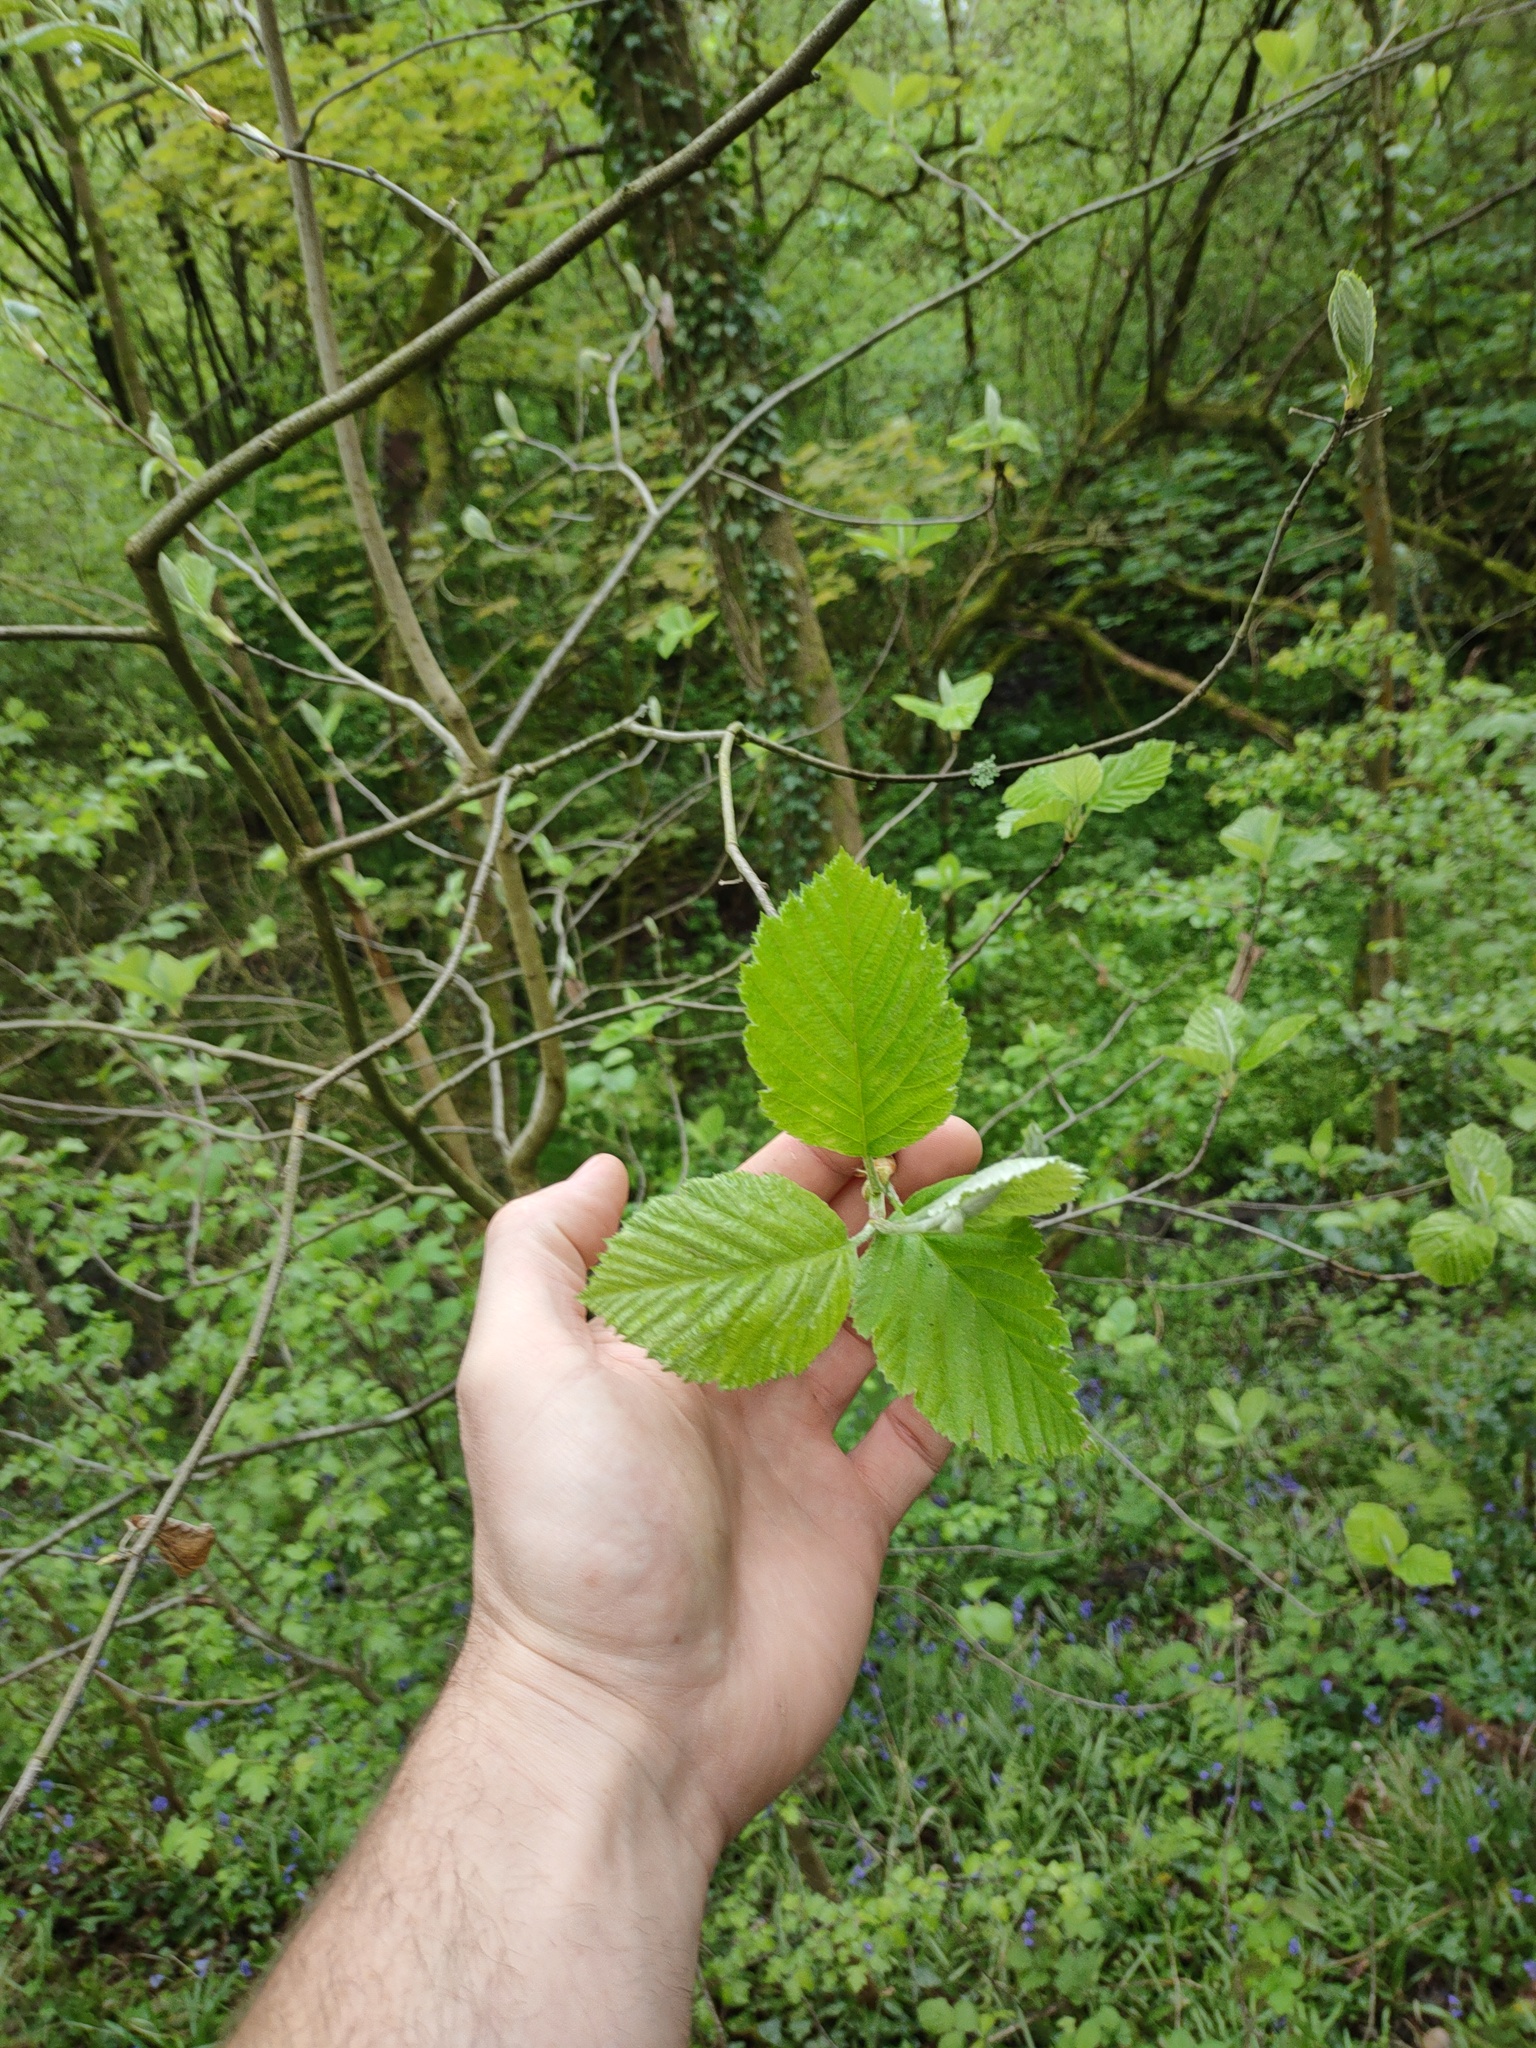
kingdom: Plantae
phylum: Tracheophyta
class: Magnoliopsida
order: Fagales
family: Betulaceae
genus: Alnus
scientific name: Alnus incana
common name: Grey alder
